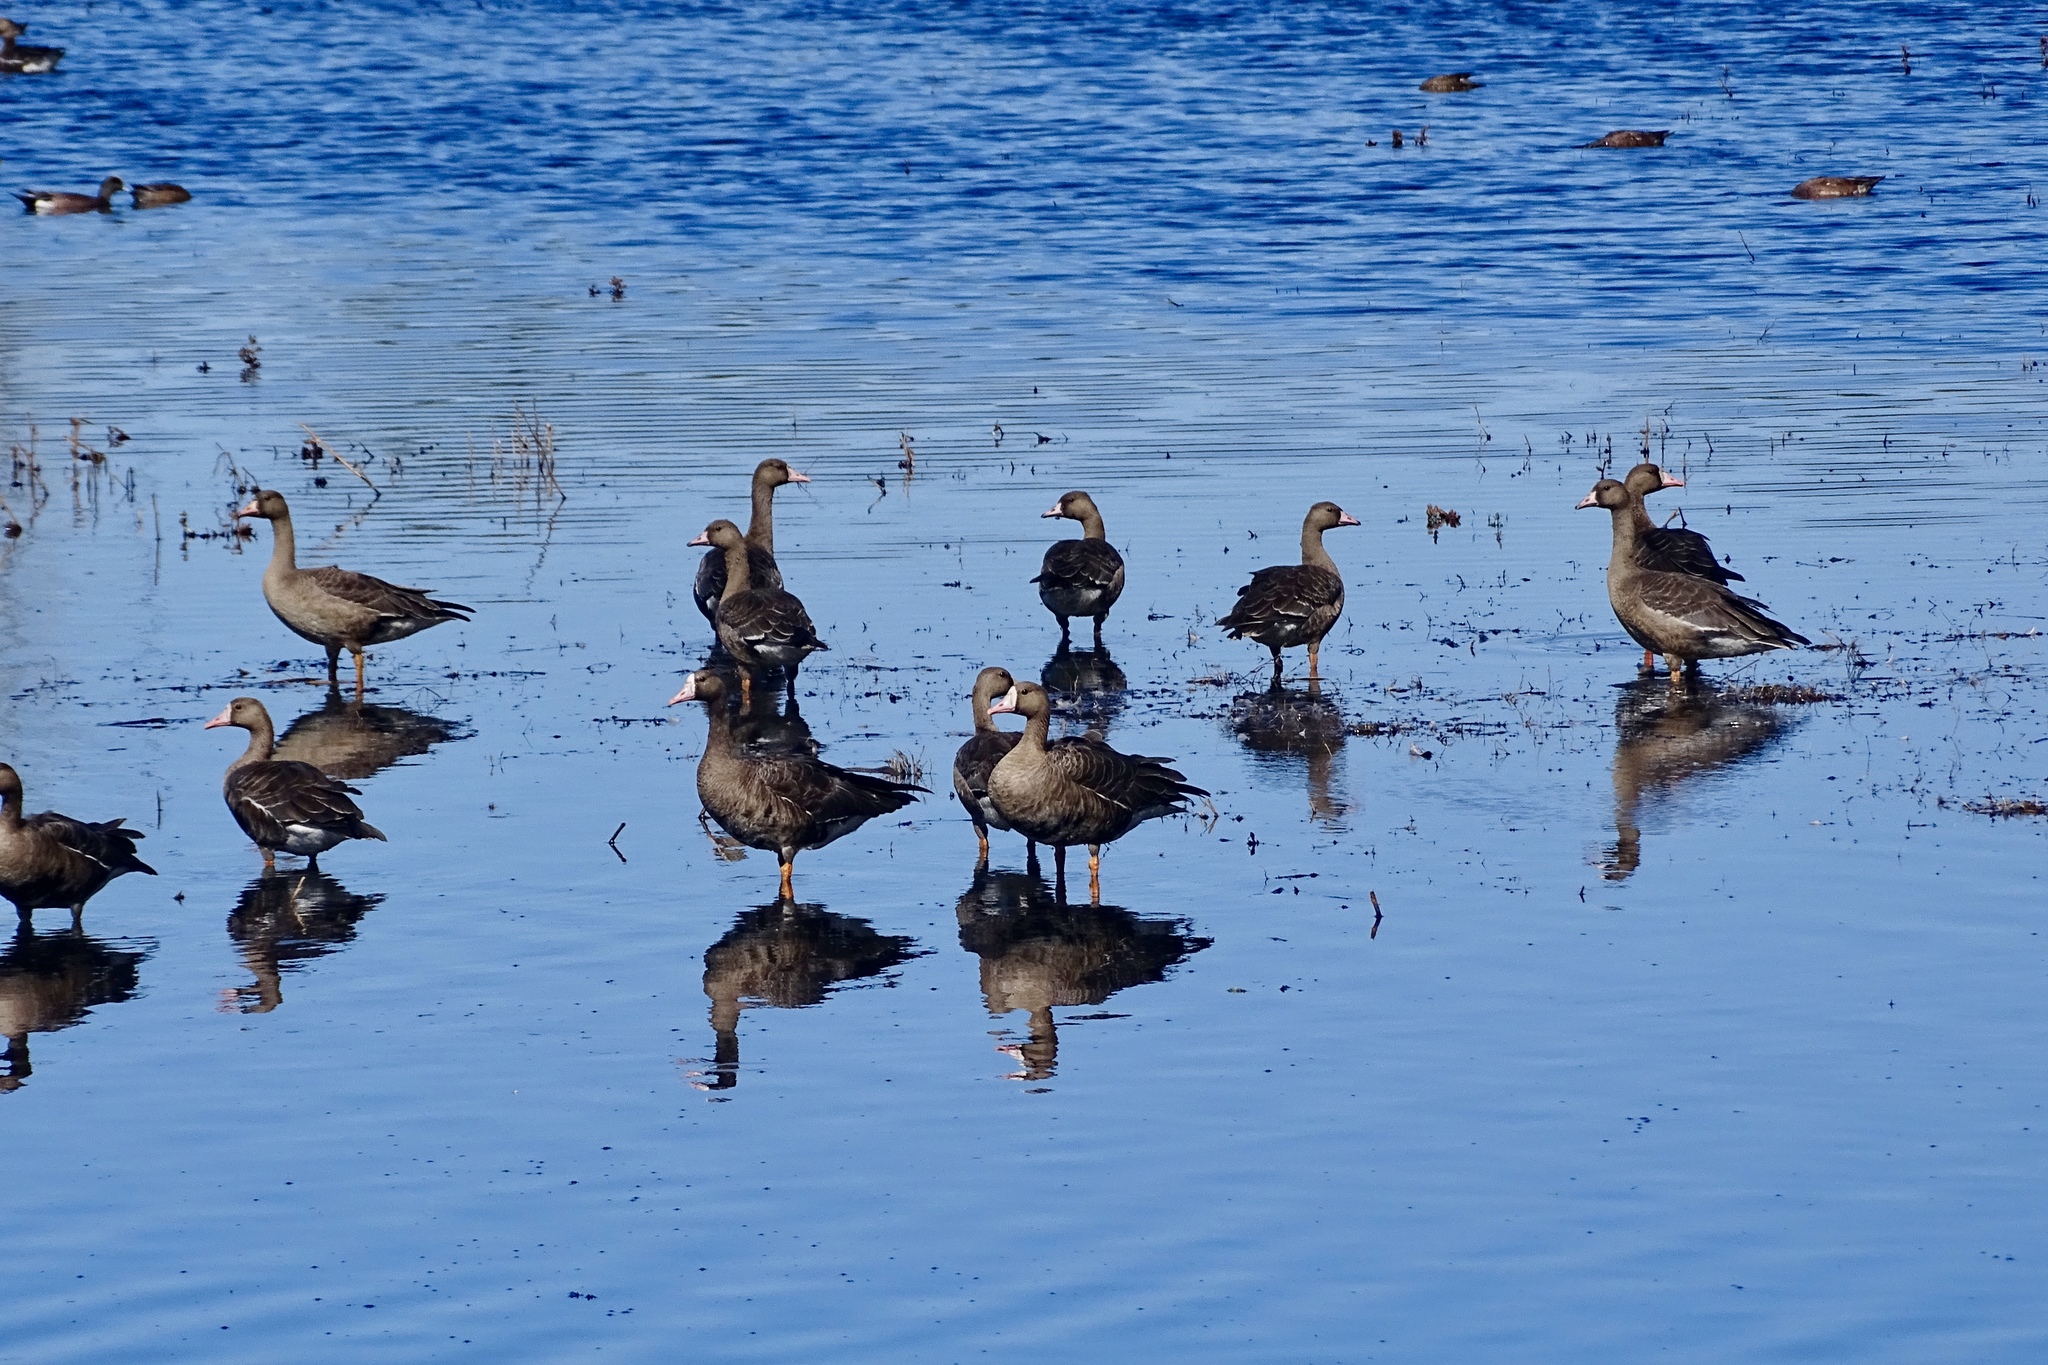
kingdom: Animalia
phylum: Chordata
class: Aves
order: Anseriformes
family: Anatidae
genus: Anser
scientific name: Anser albifrons
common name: Greater white-fronted goose
